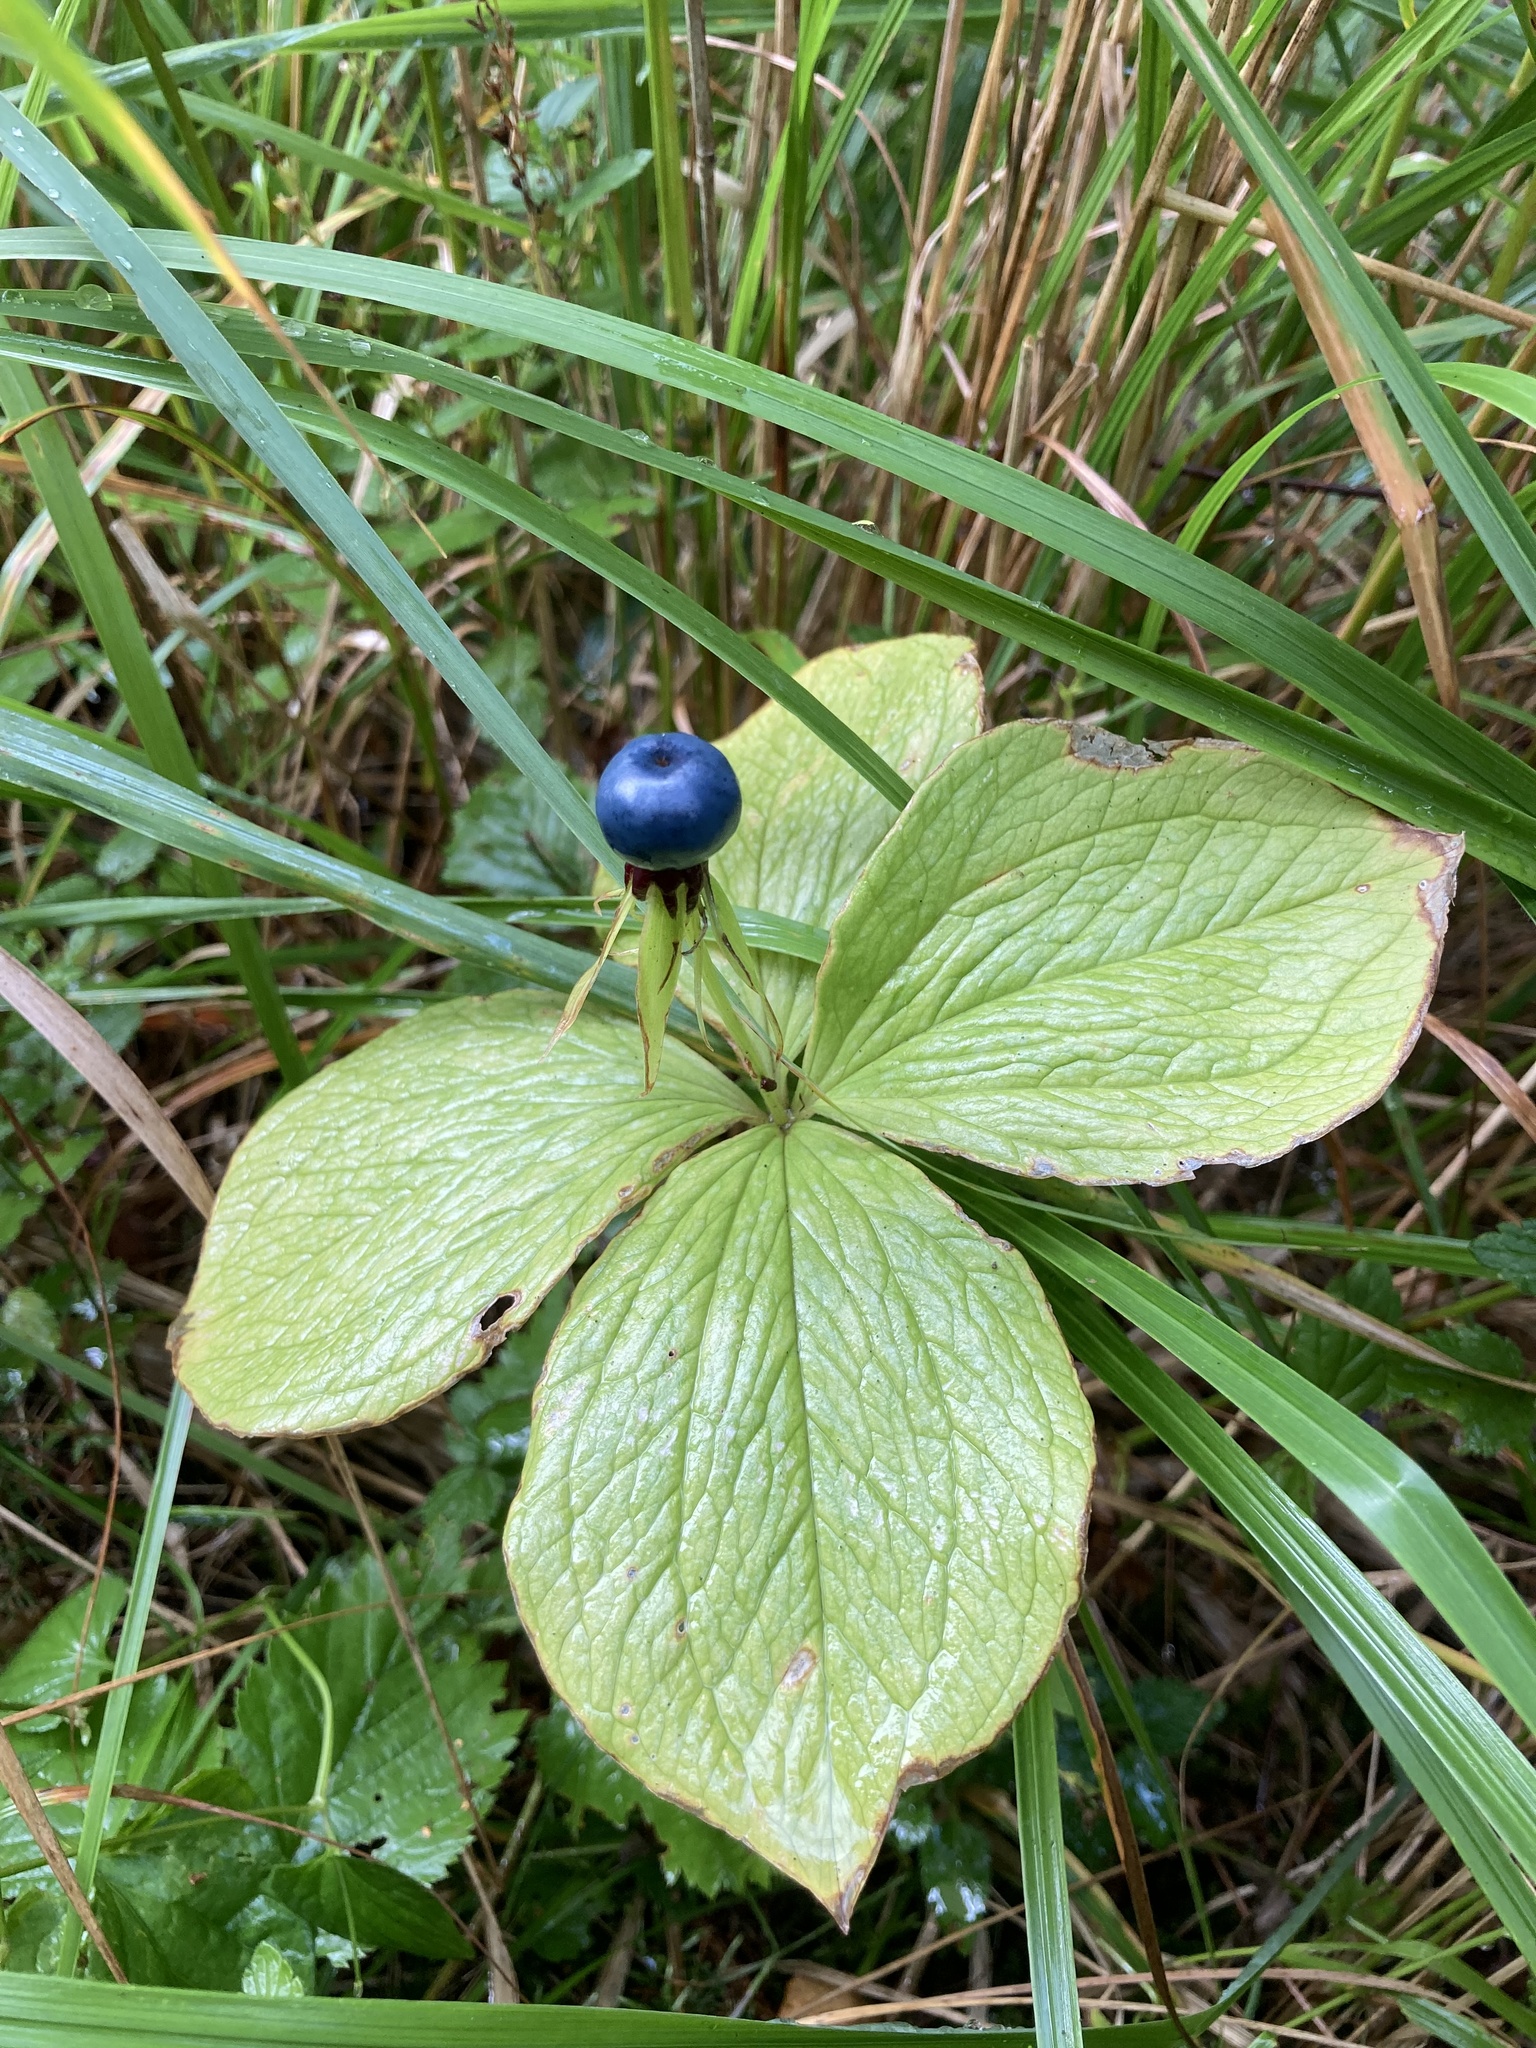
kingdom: Plantae
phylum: Tracheophyta
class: Liliopsida
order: Liliales
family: Melanthiaceae
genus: Paris
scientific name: Paris quadrifolia
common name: Herb-paris
